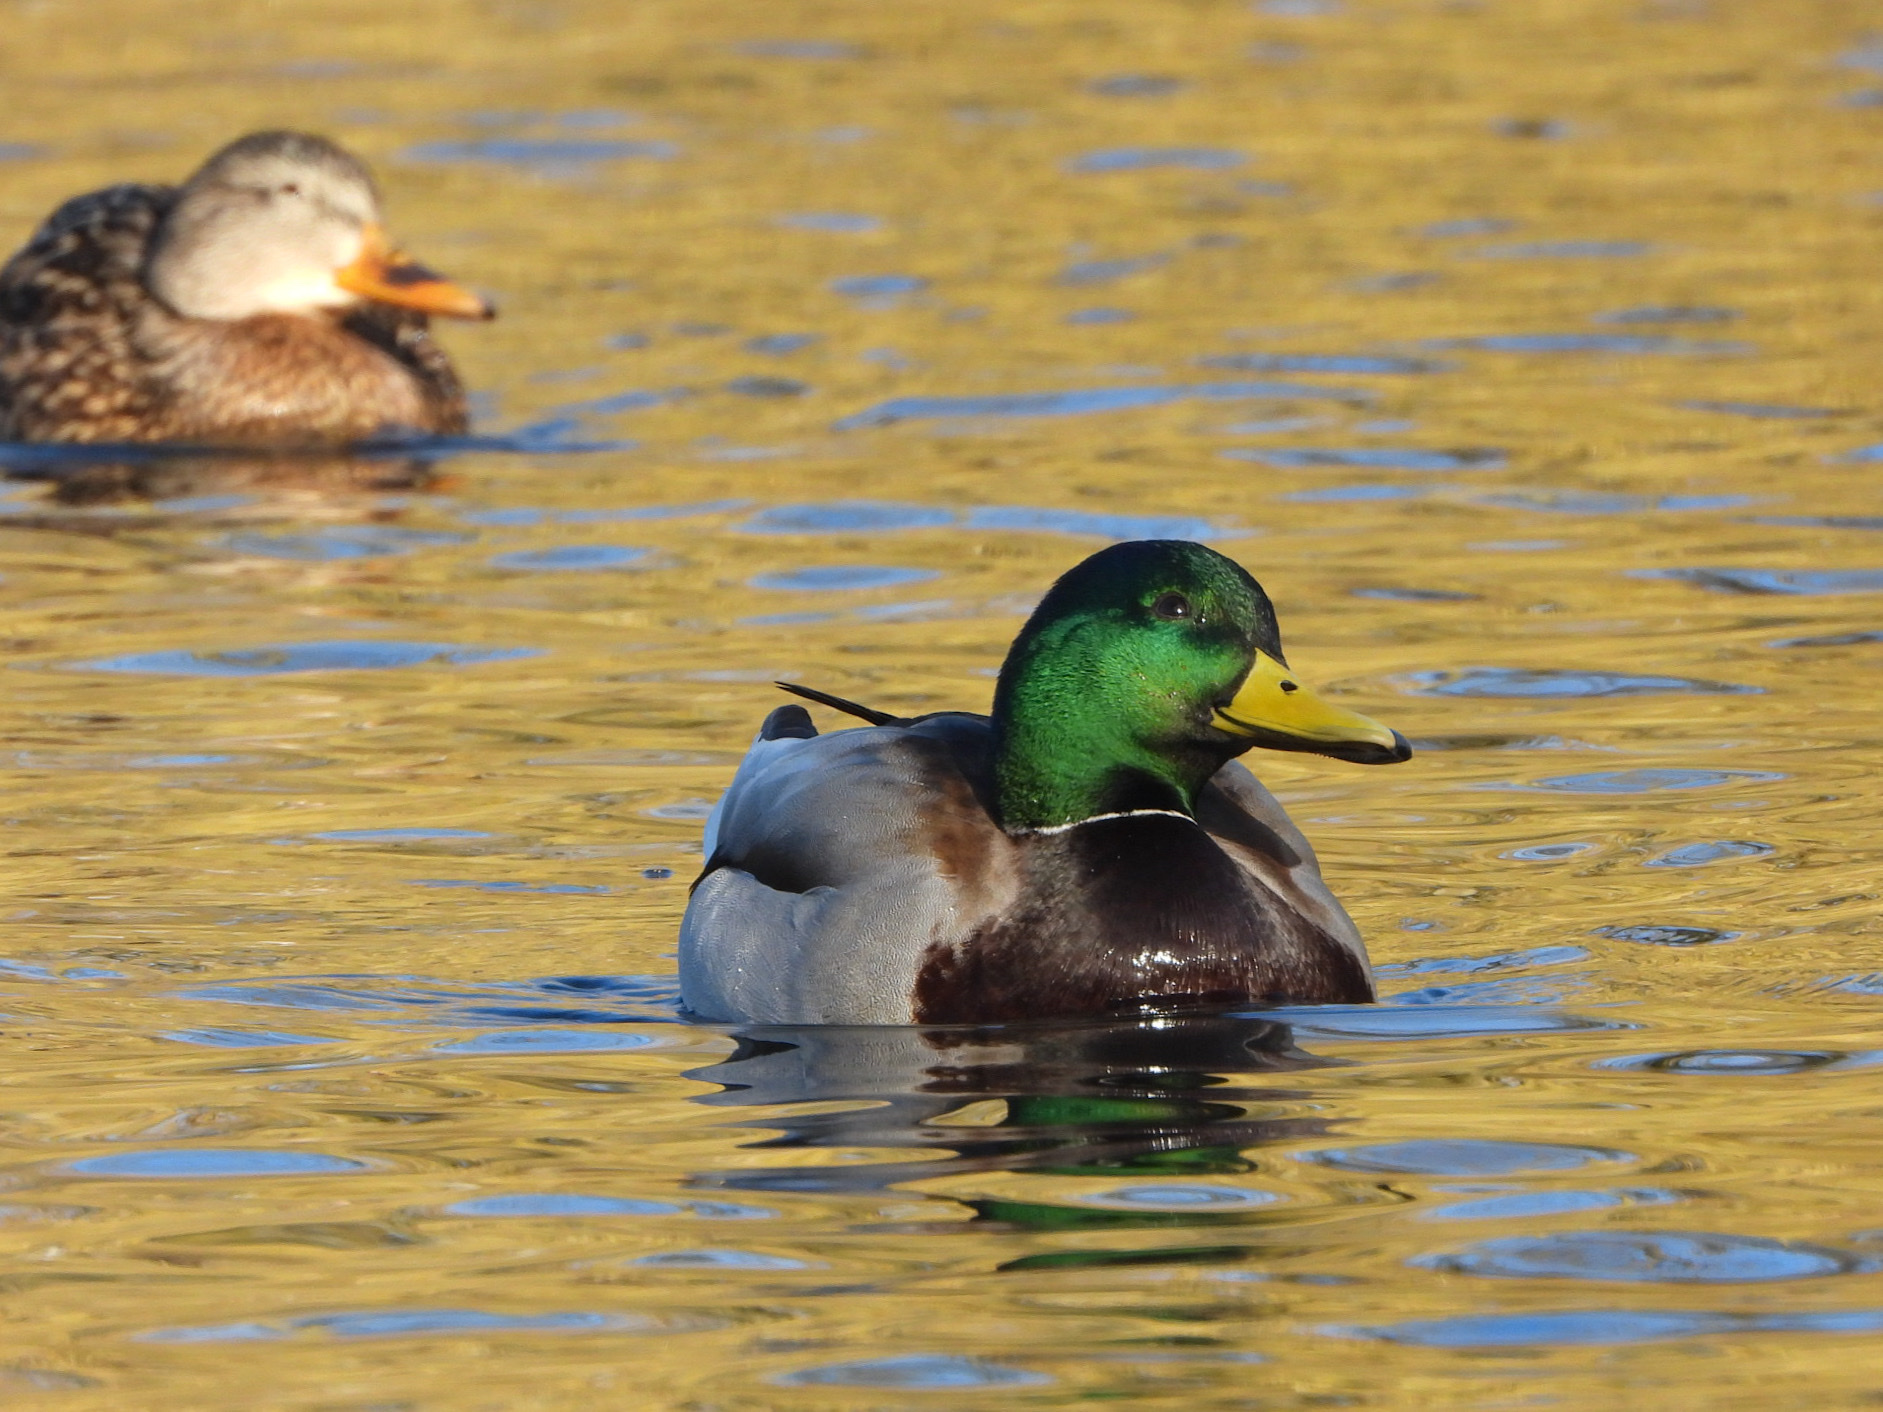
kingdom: Animalia
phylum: Chordata
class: Aves
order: Anseriformes
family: Anatidae
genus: Anas
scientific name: Anas platyrhynchos
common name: Mallard
